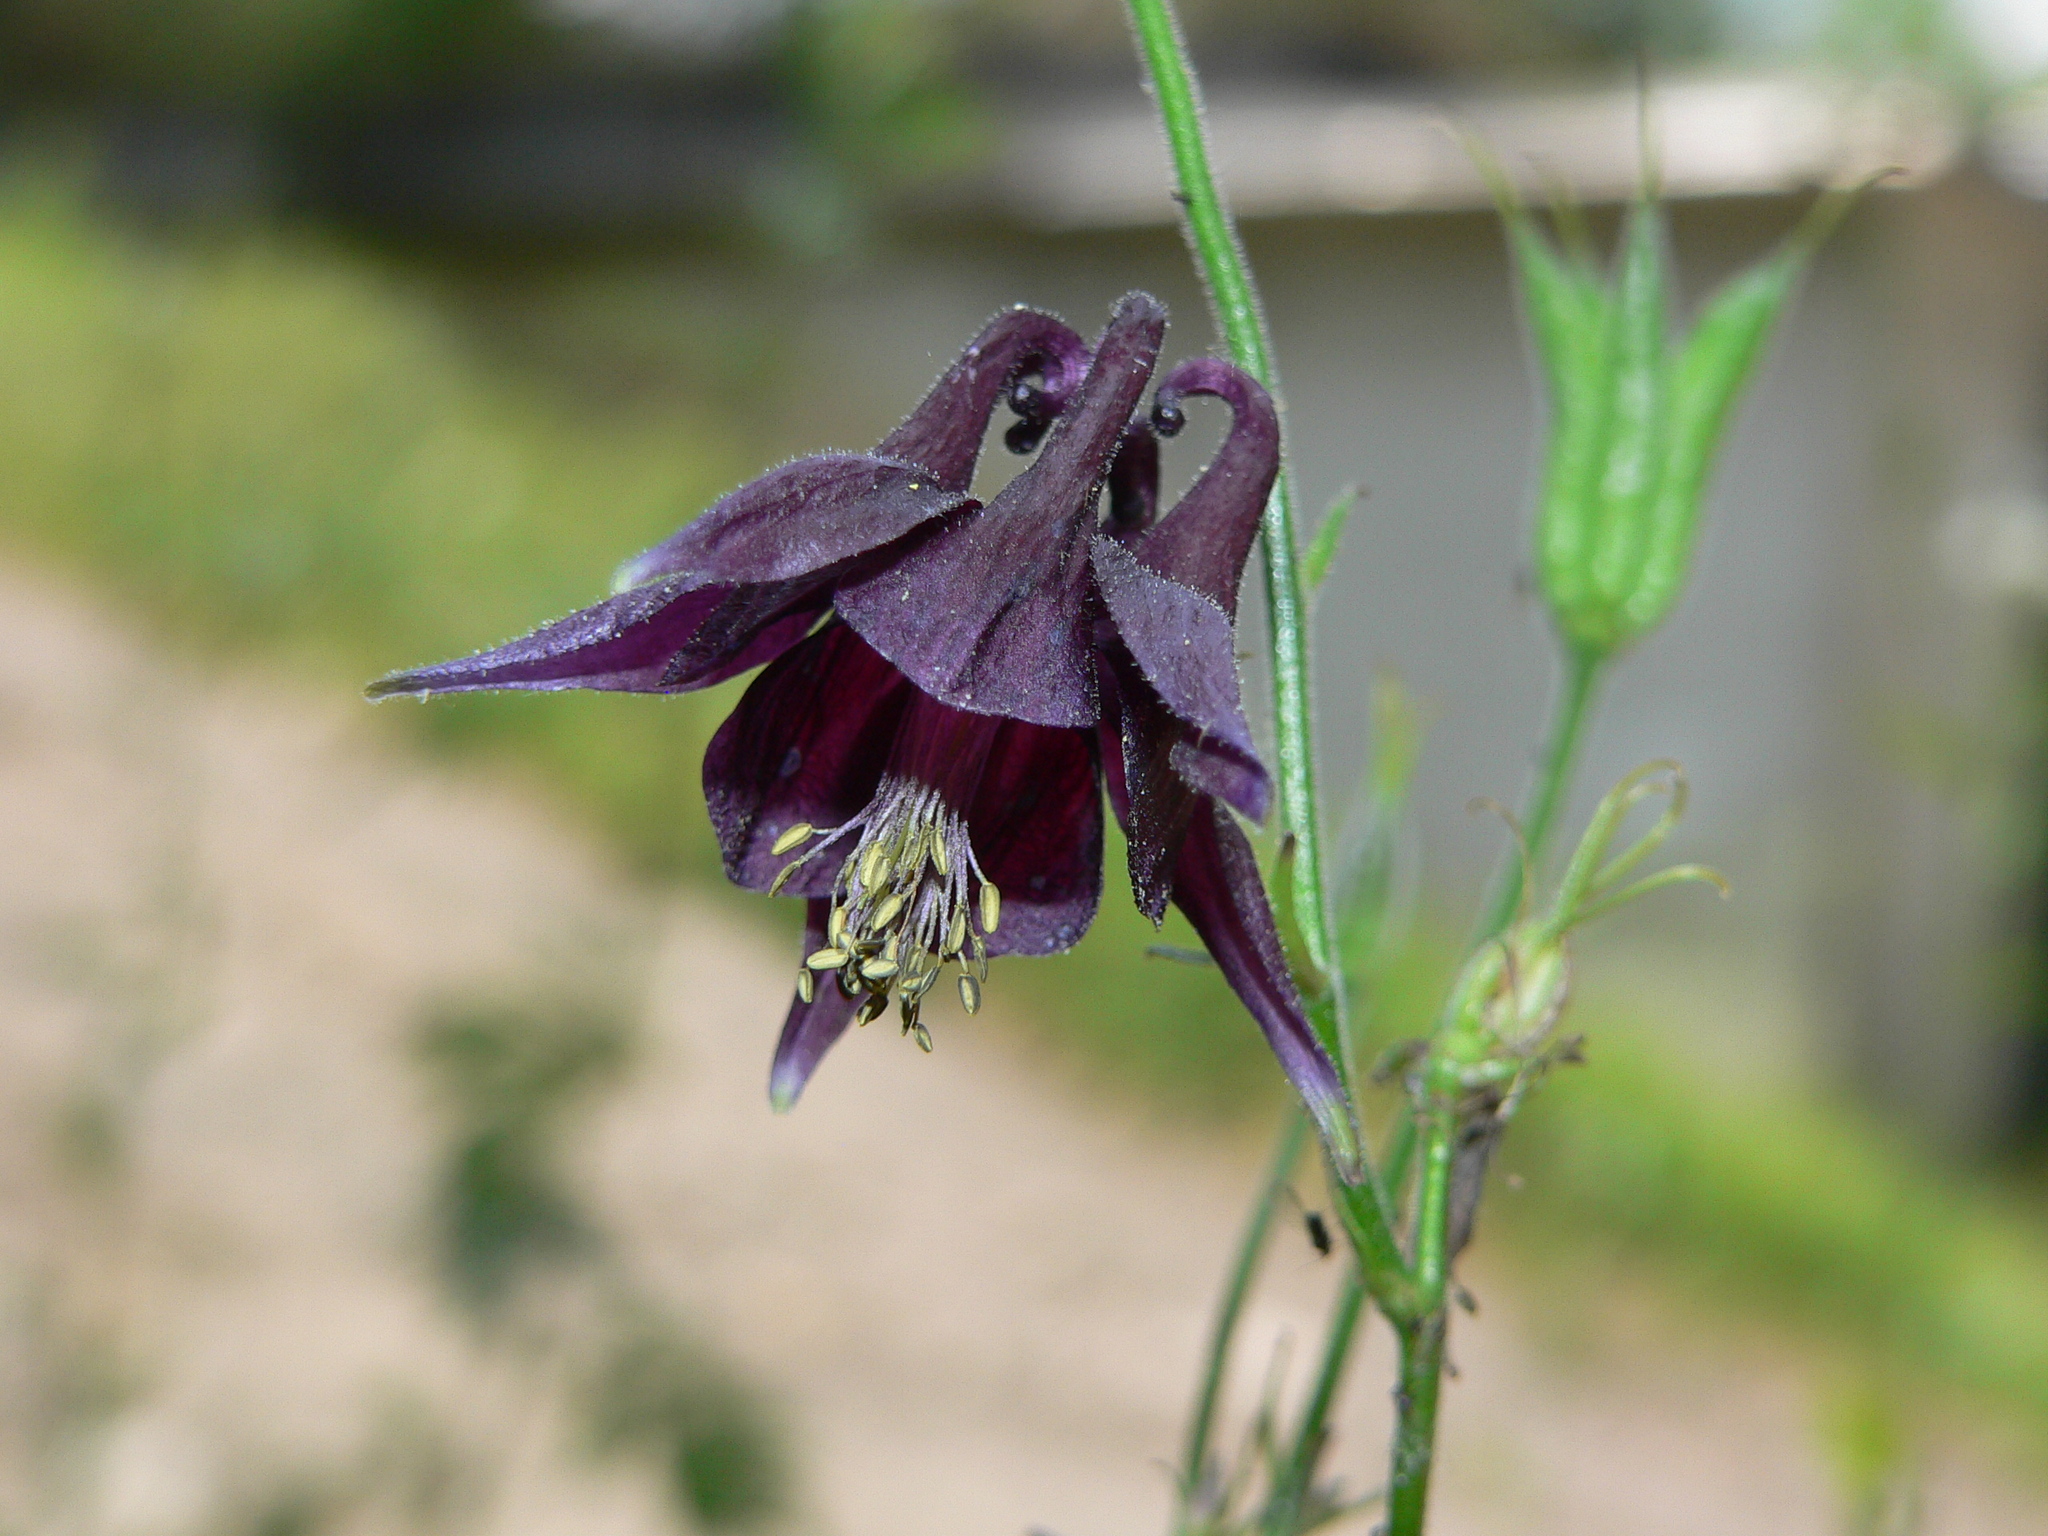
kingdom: Plantae
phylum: Tracheophyta
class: Magnoliopsida
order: Ranunculales
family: Ranunculaceae
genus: Aquilegia
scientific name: Aquilegia atrata
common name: Dark columbine
